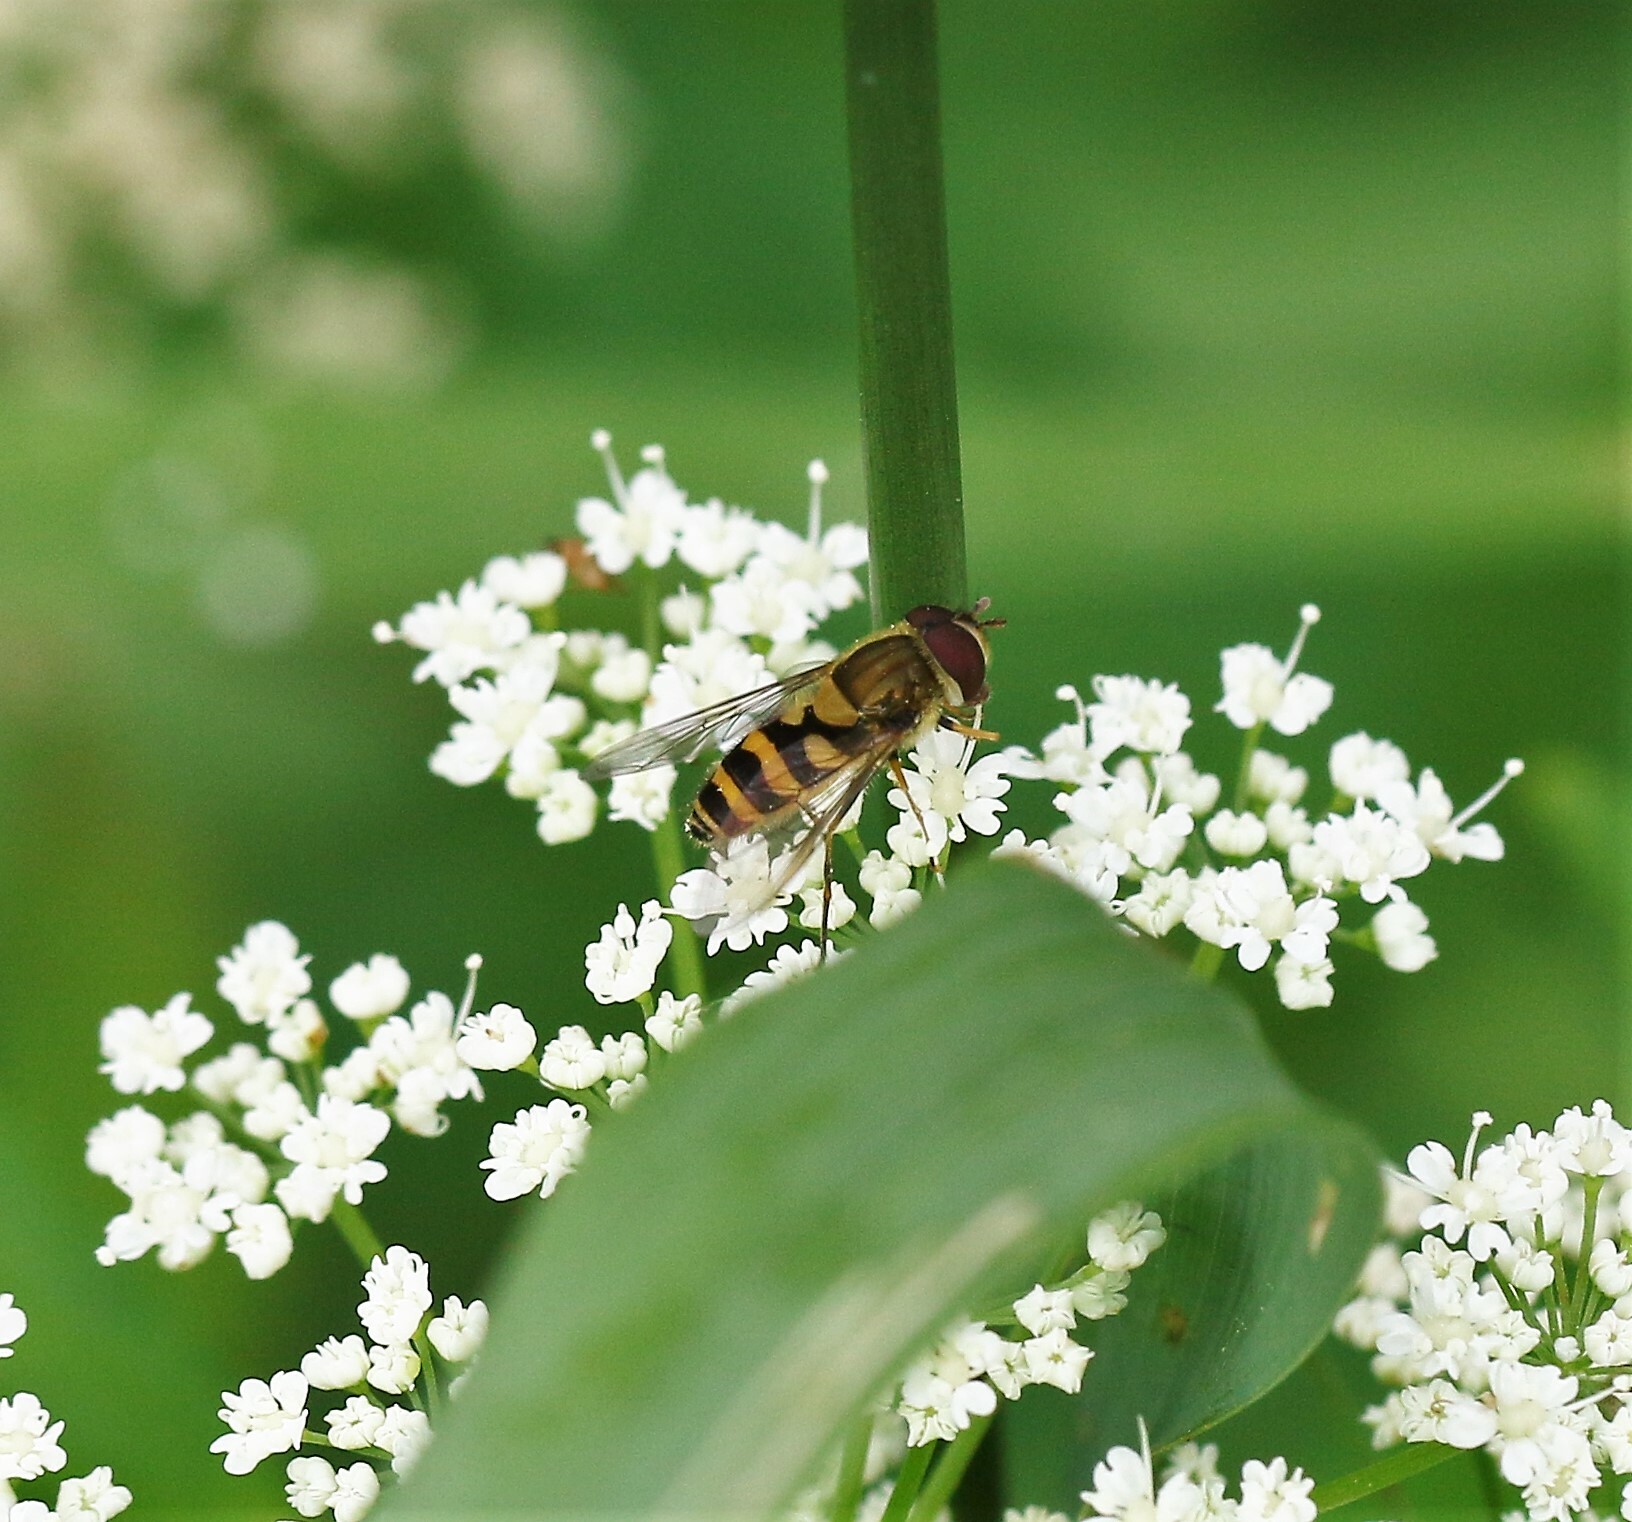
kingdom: Animalia
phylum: Arthropoda
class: Insecta
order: Diptera
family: Syrphidae
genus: Syrphus
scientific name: Syrphus
